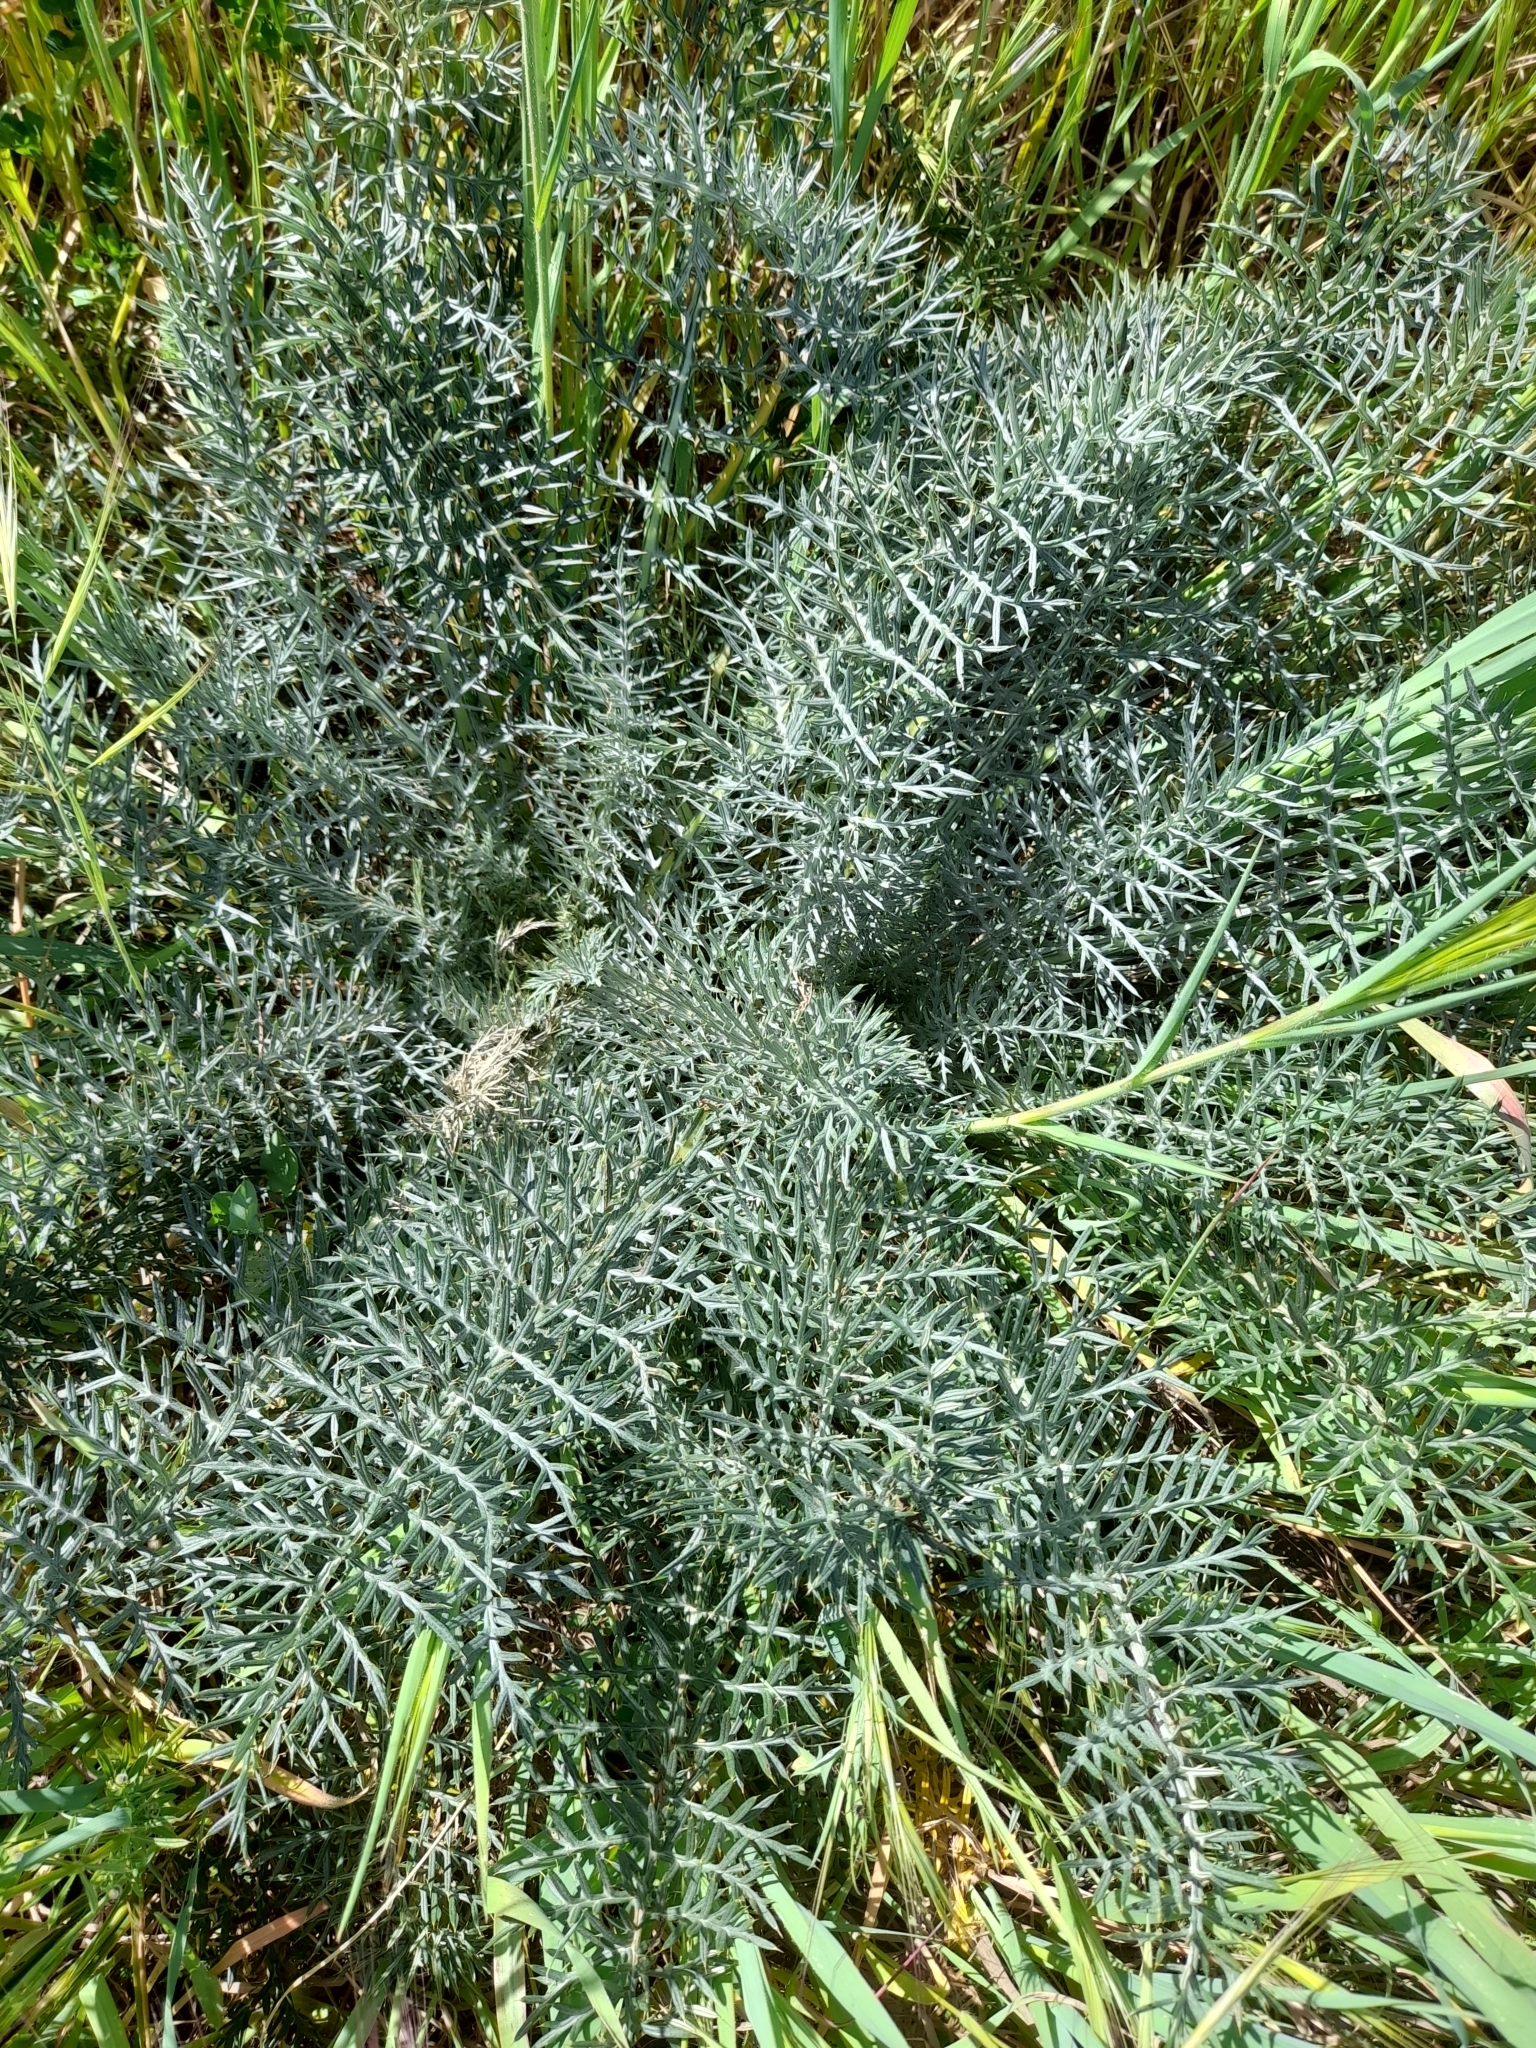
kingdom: Plantae
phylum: Tracheophyta
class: Magnoliopsida
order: Asterales
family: Asteraceae
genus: Cynara
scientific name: Cynara humilis
